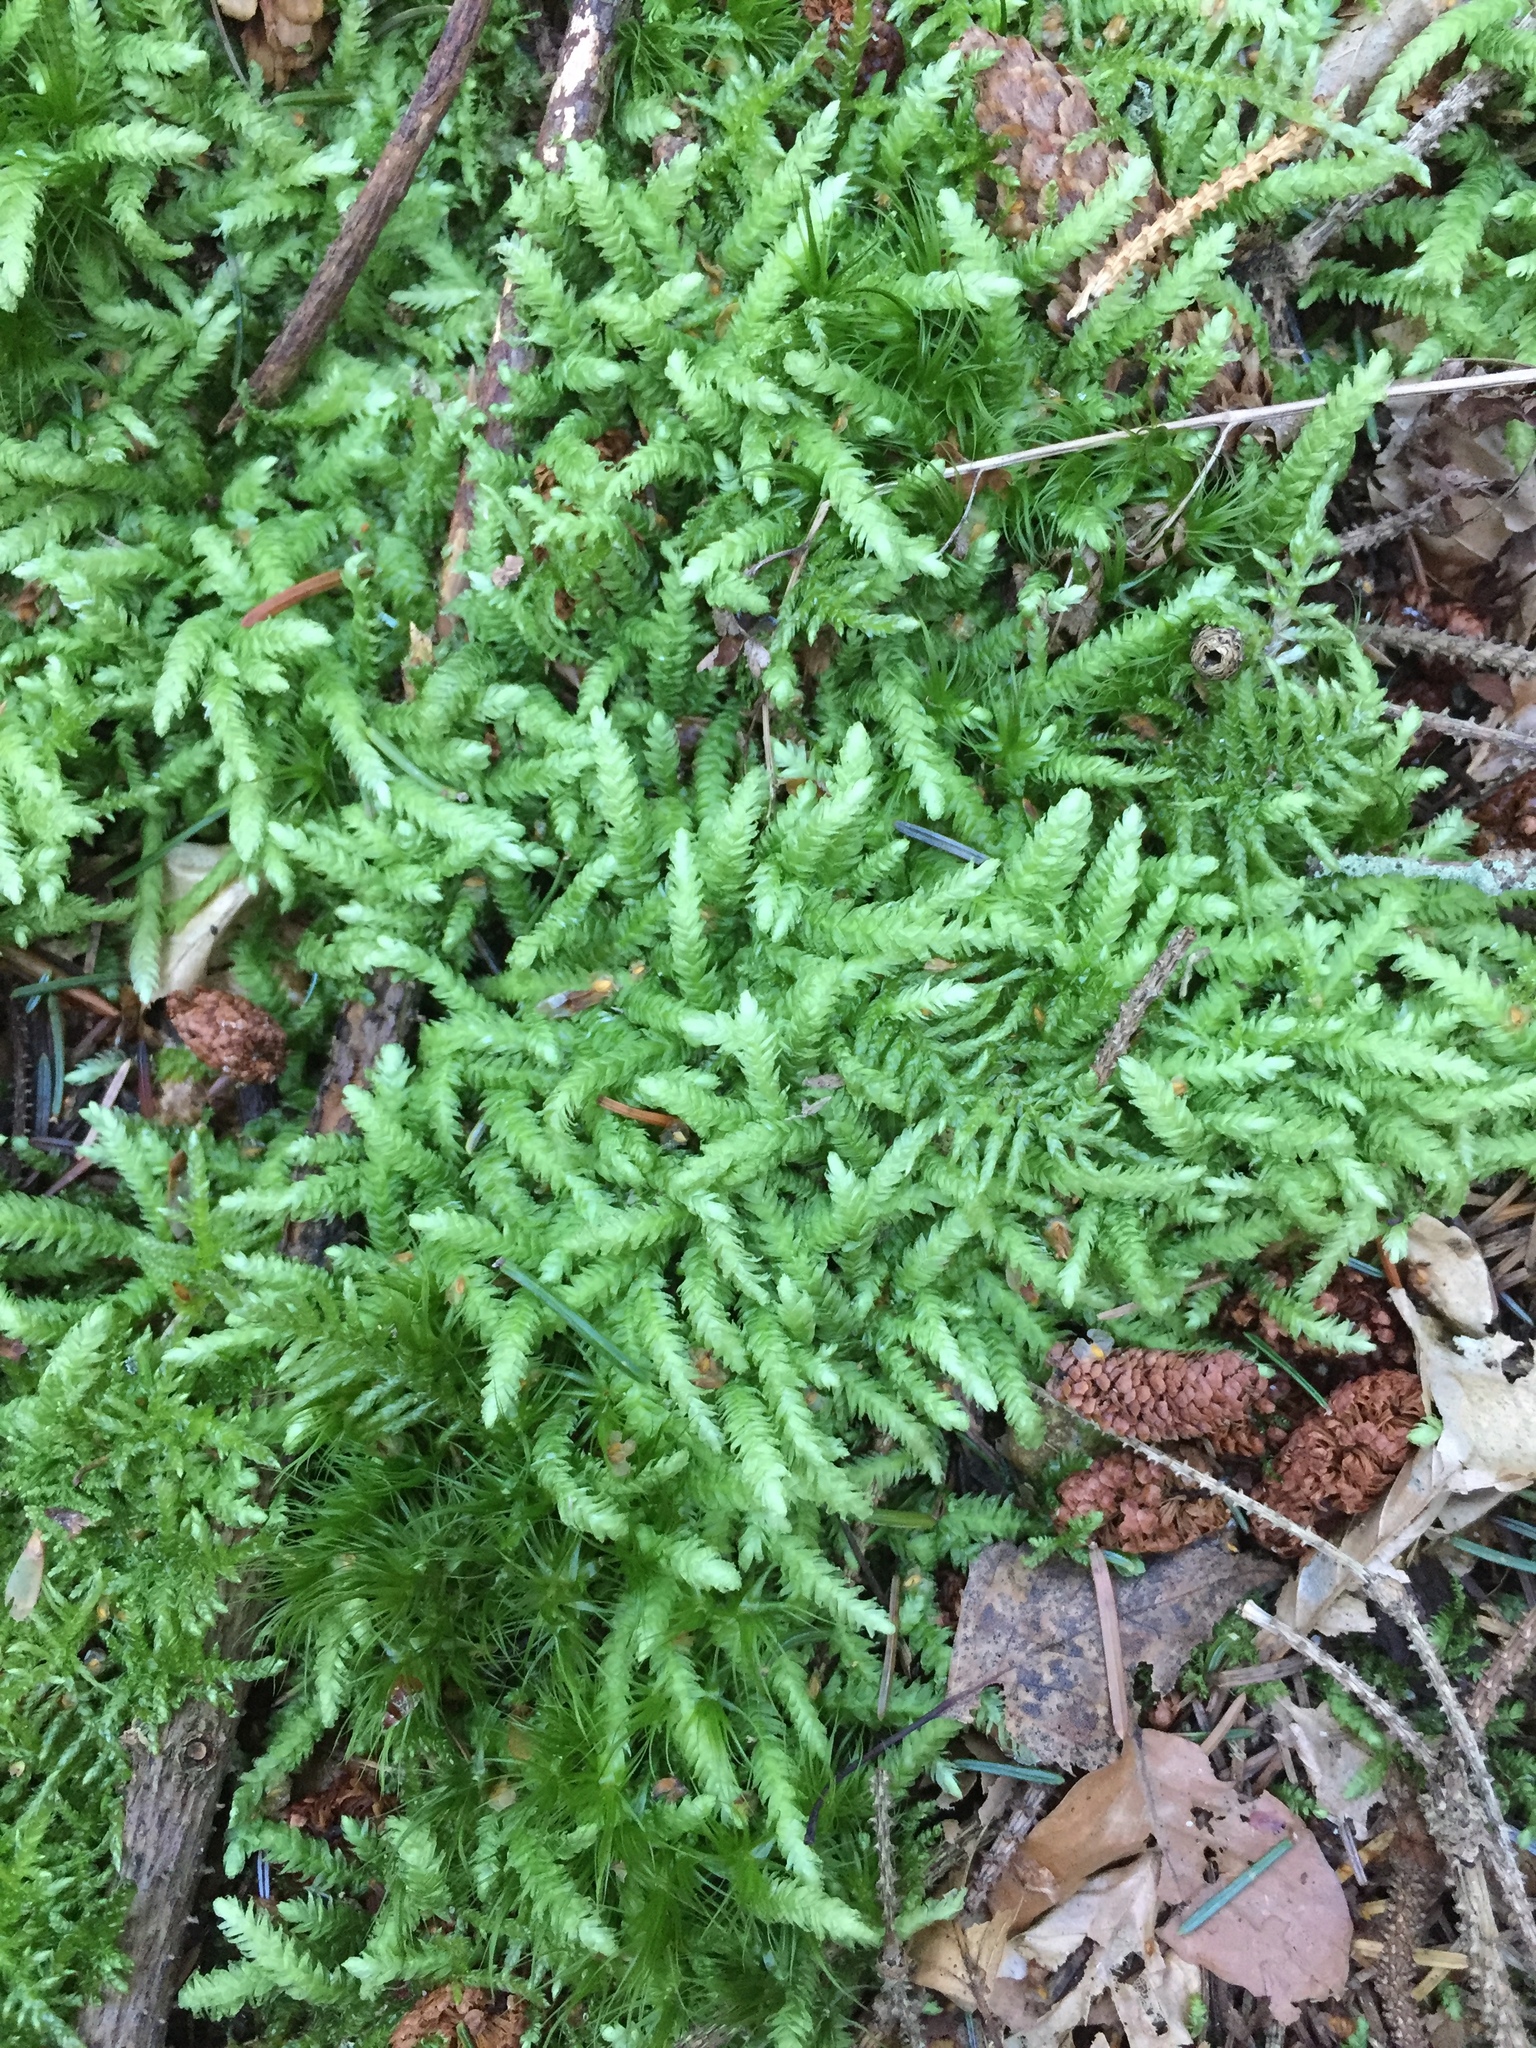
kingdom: Plantae
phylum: Bryophyta
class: Bryopsida
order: Hypnales
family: Plagiotheciaceae
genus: Plagiothecium
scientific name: Plagiothecium undulatum
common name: Waved silk-moss
